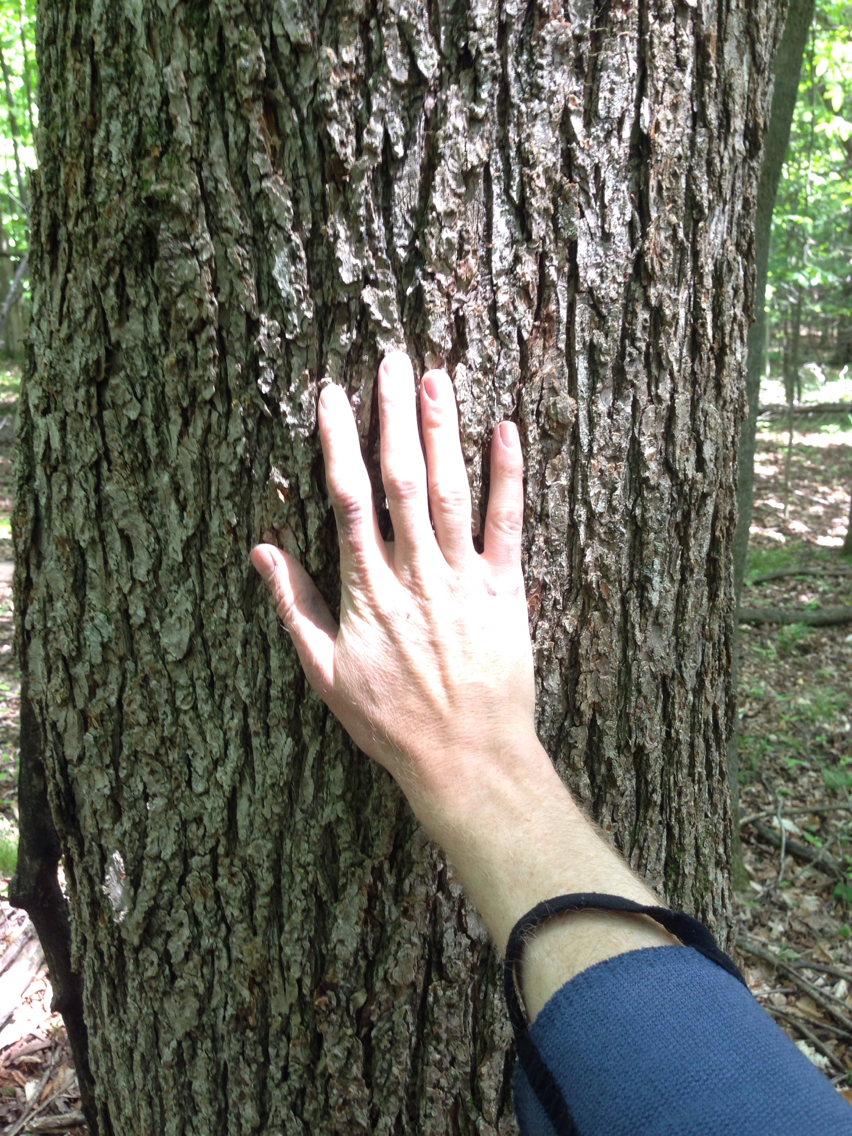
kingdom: Plantae
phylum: Tracheophyta
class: Magnoliopsida
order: Rosales
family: Ulmaceae
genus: Ulmus
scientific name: Ulmus americana
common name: American elm
